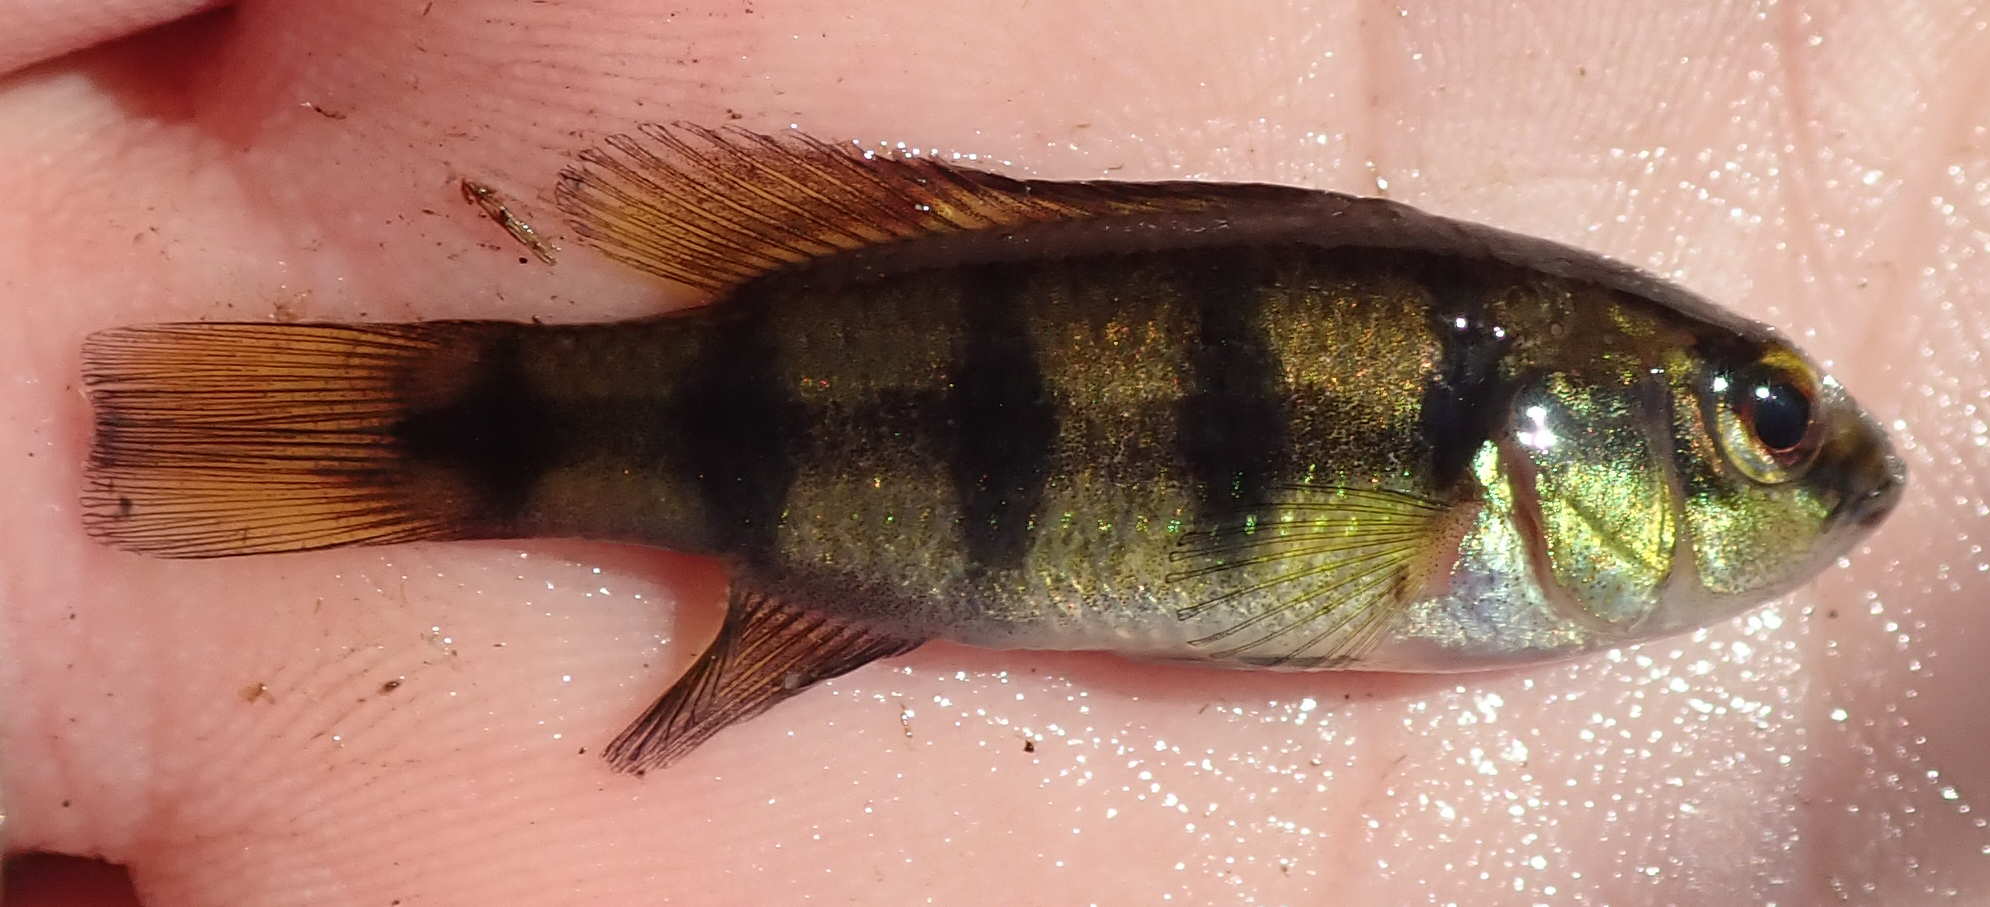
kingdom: Animalia
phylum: Chordata
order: Perciformes
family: Cichlidae
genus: Hemichromis
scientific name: Hemichromis elongatus
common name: Jewel cichlid
